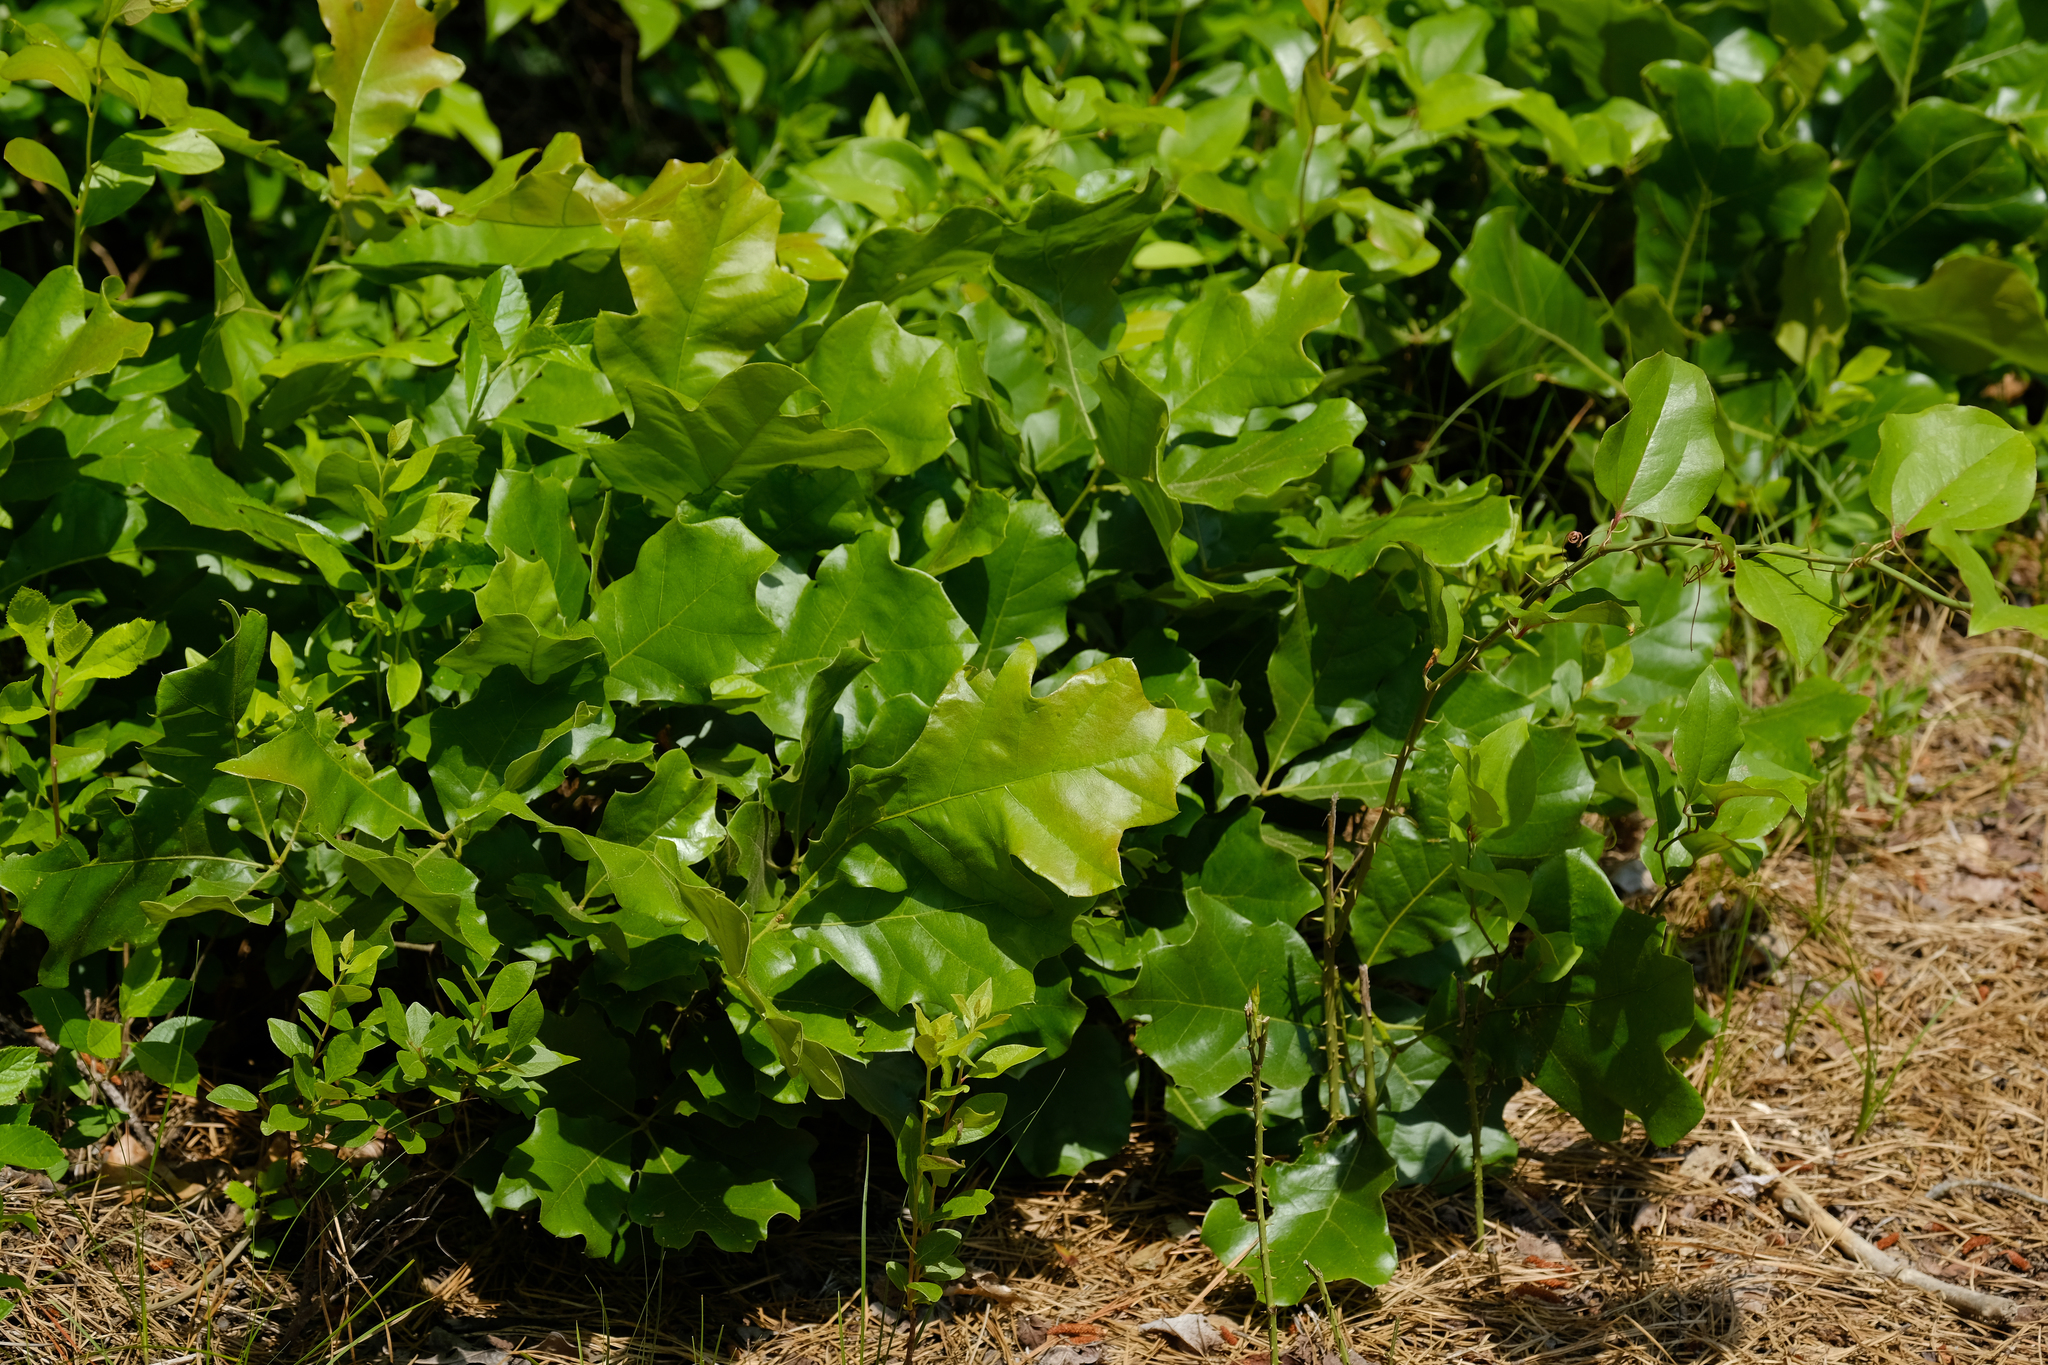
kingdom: Plantae
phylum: Tracheophyta
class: Magnoliopsida
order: Fagales
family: Fagaceae
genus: Quercus
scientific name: Quercus ilicifolia
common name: Bear oak
